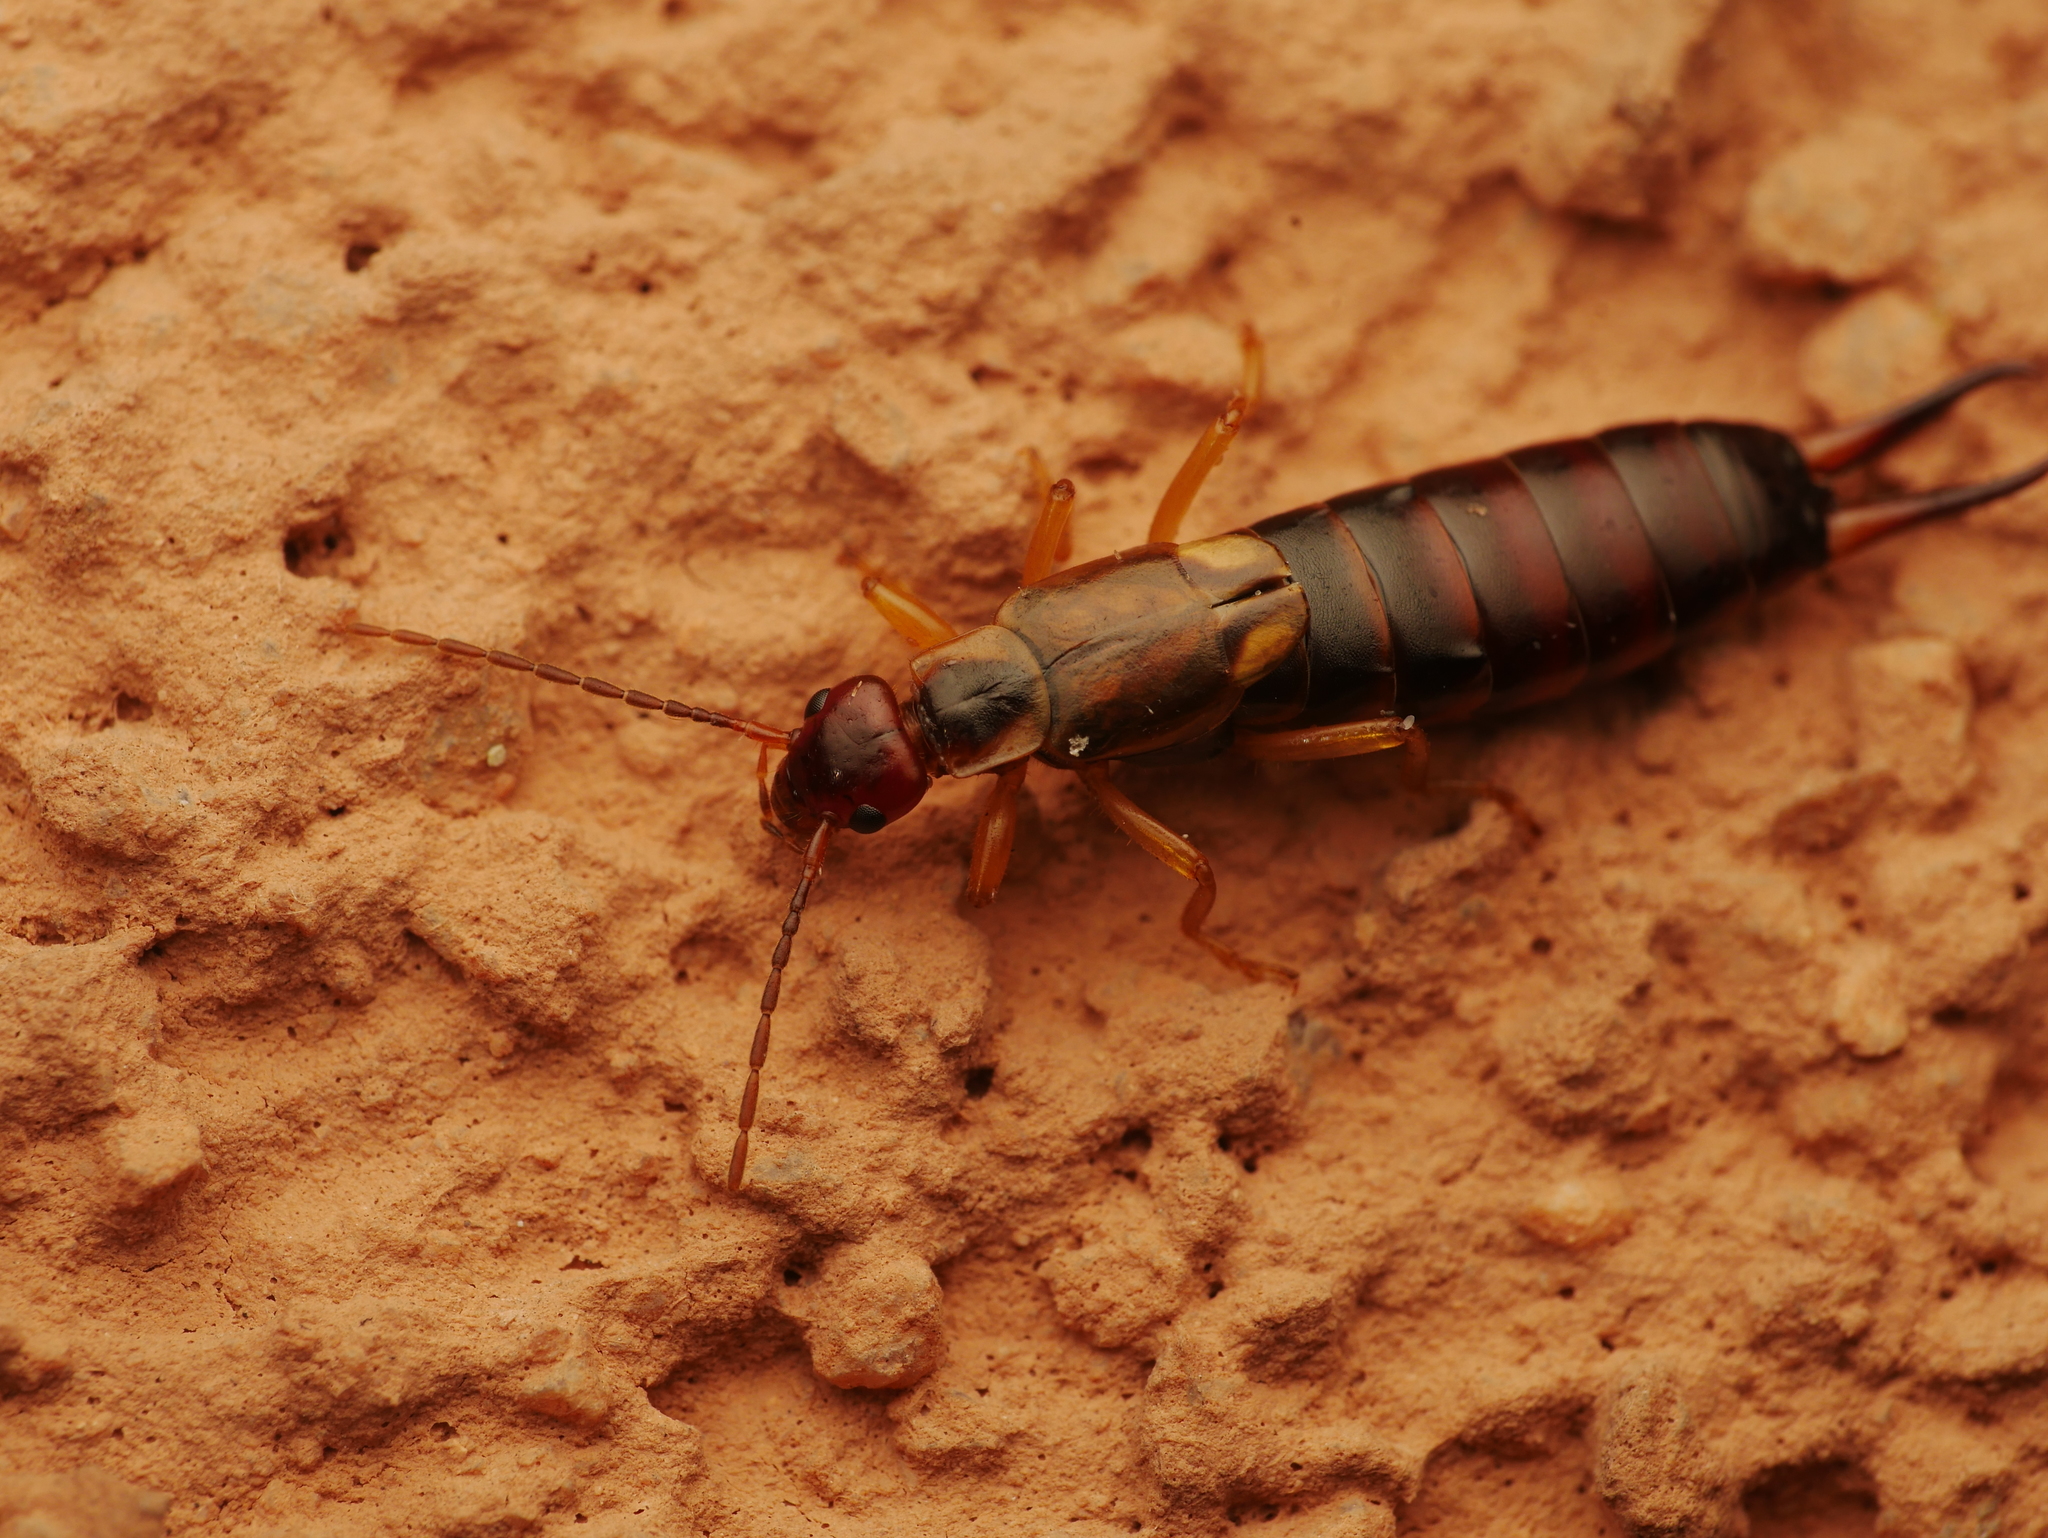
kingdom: Animalia
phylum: Arthropoda
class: Insecta
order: Dermaptera
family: Forficulidae
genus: Forficula
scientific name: Forficula
